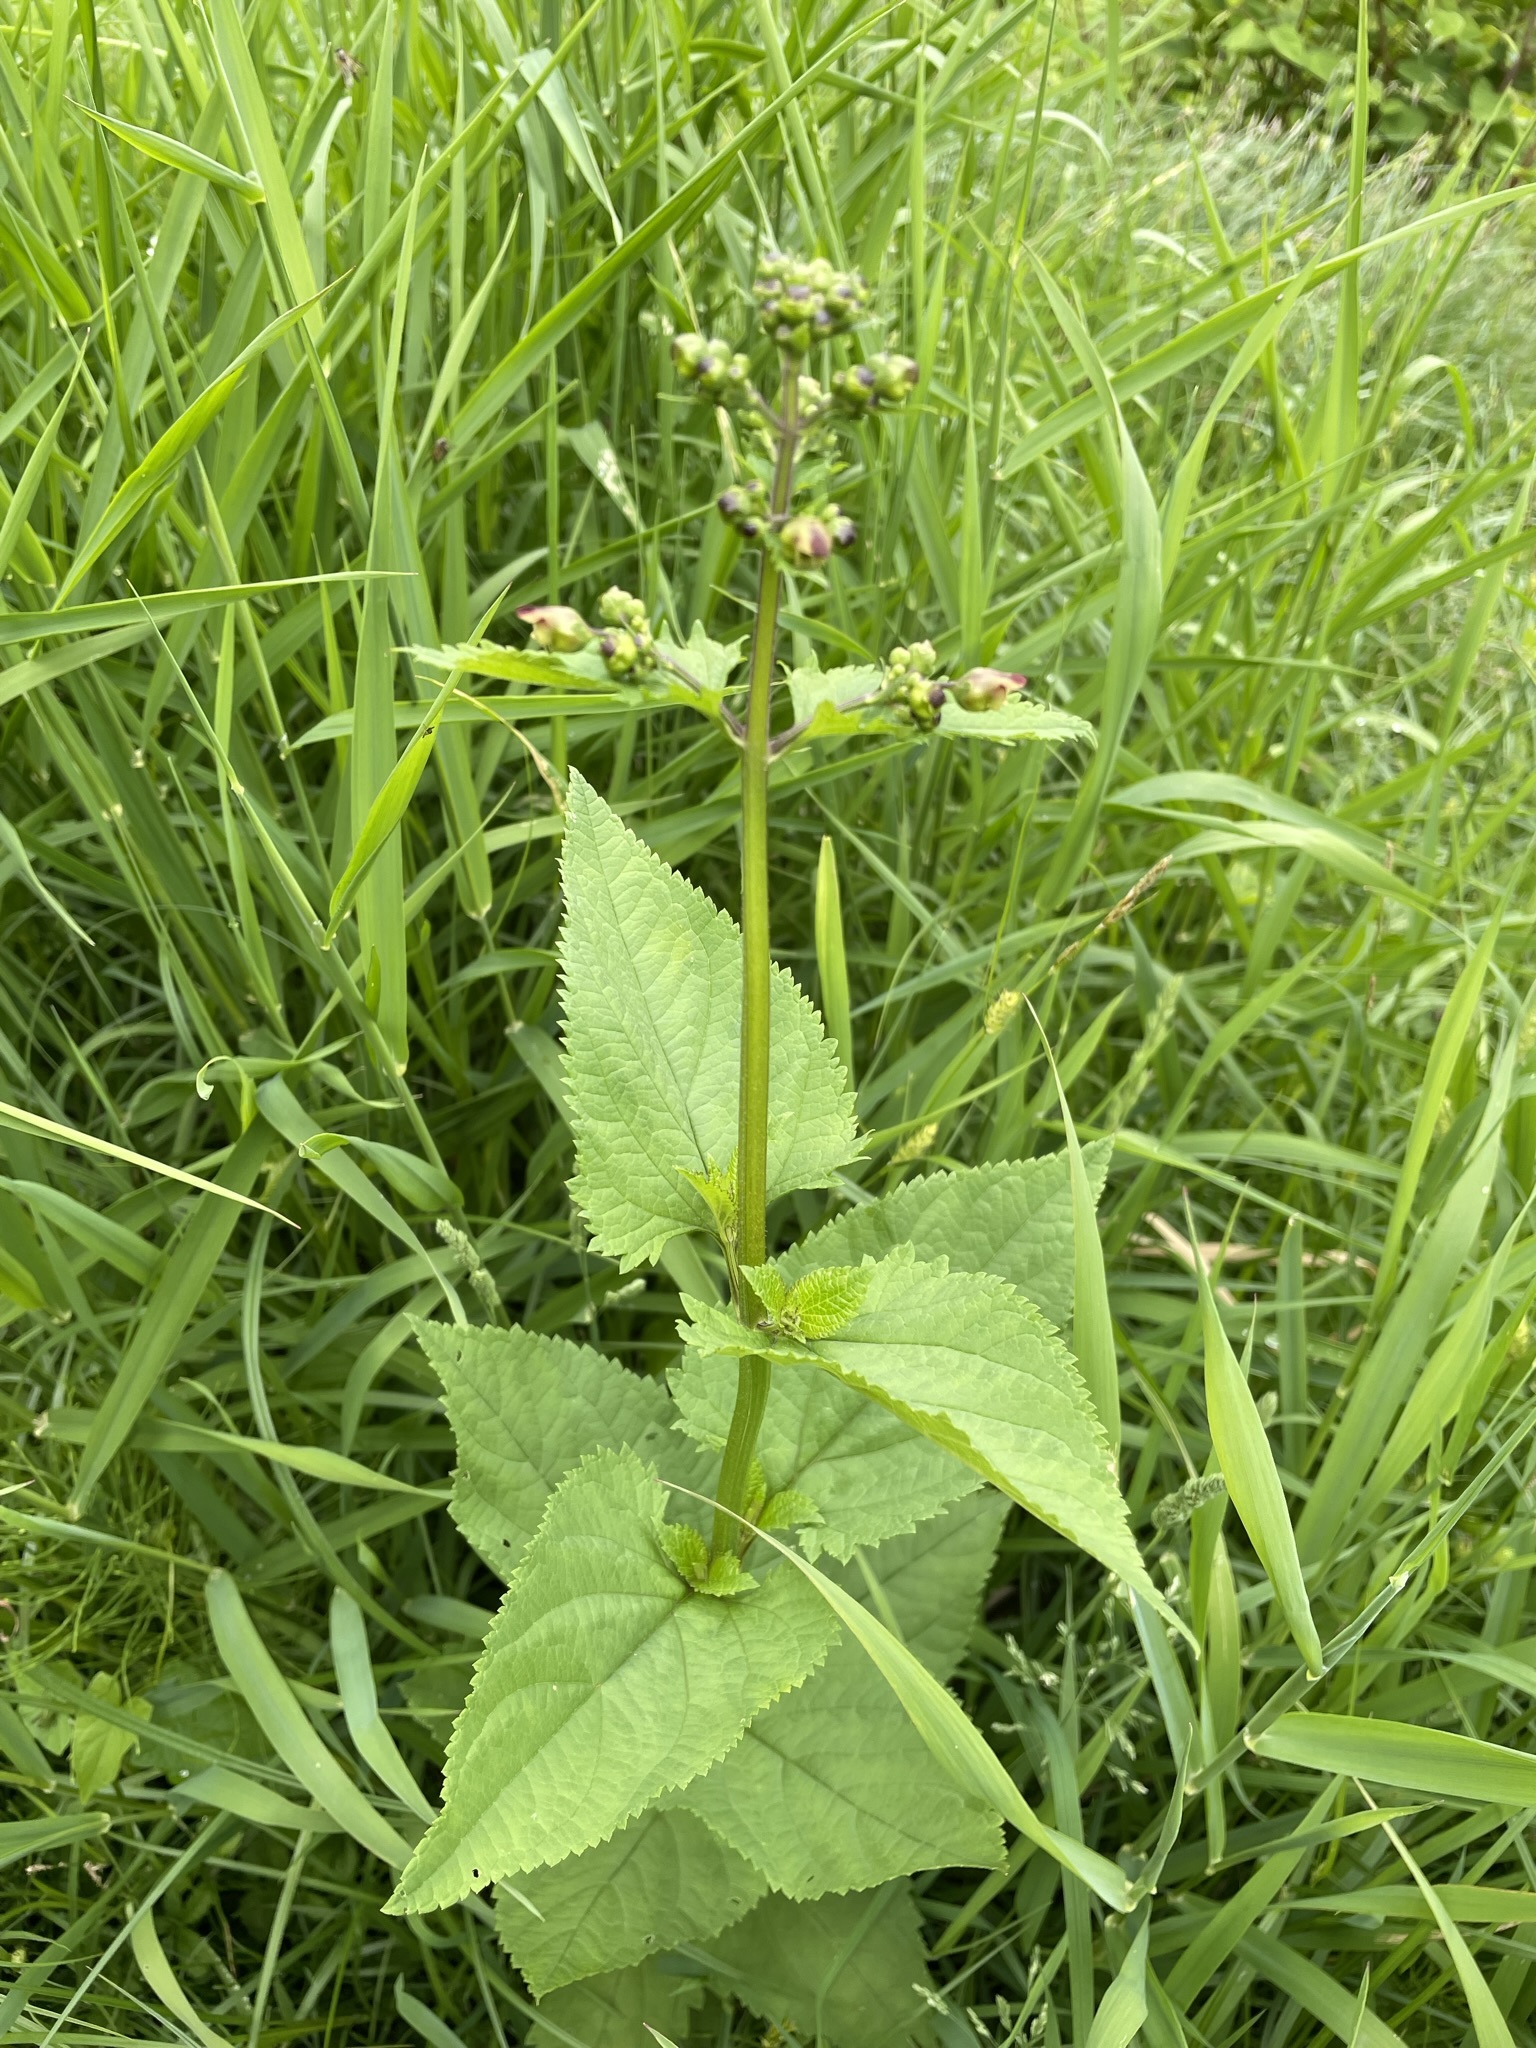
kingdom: Plantae
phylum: Tracheophyta
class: Magnoliopsida
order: Lamiales
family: Scrophulariaceae
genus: Scrophularia
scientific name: Scrophularia nodosa
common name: Common figwort
